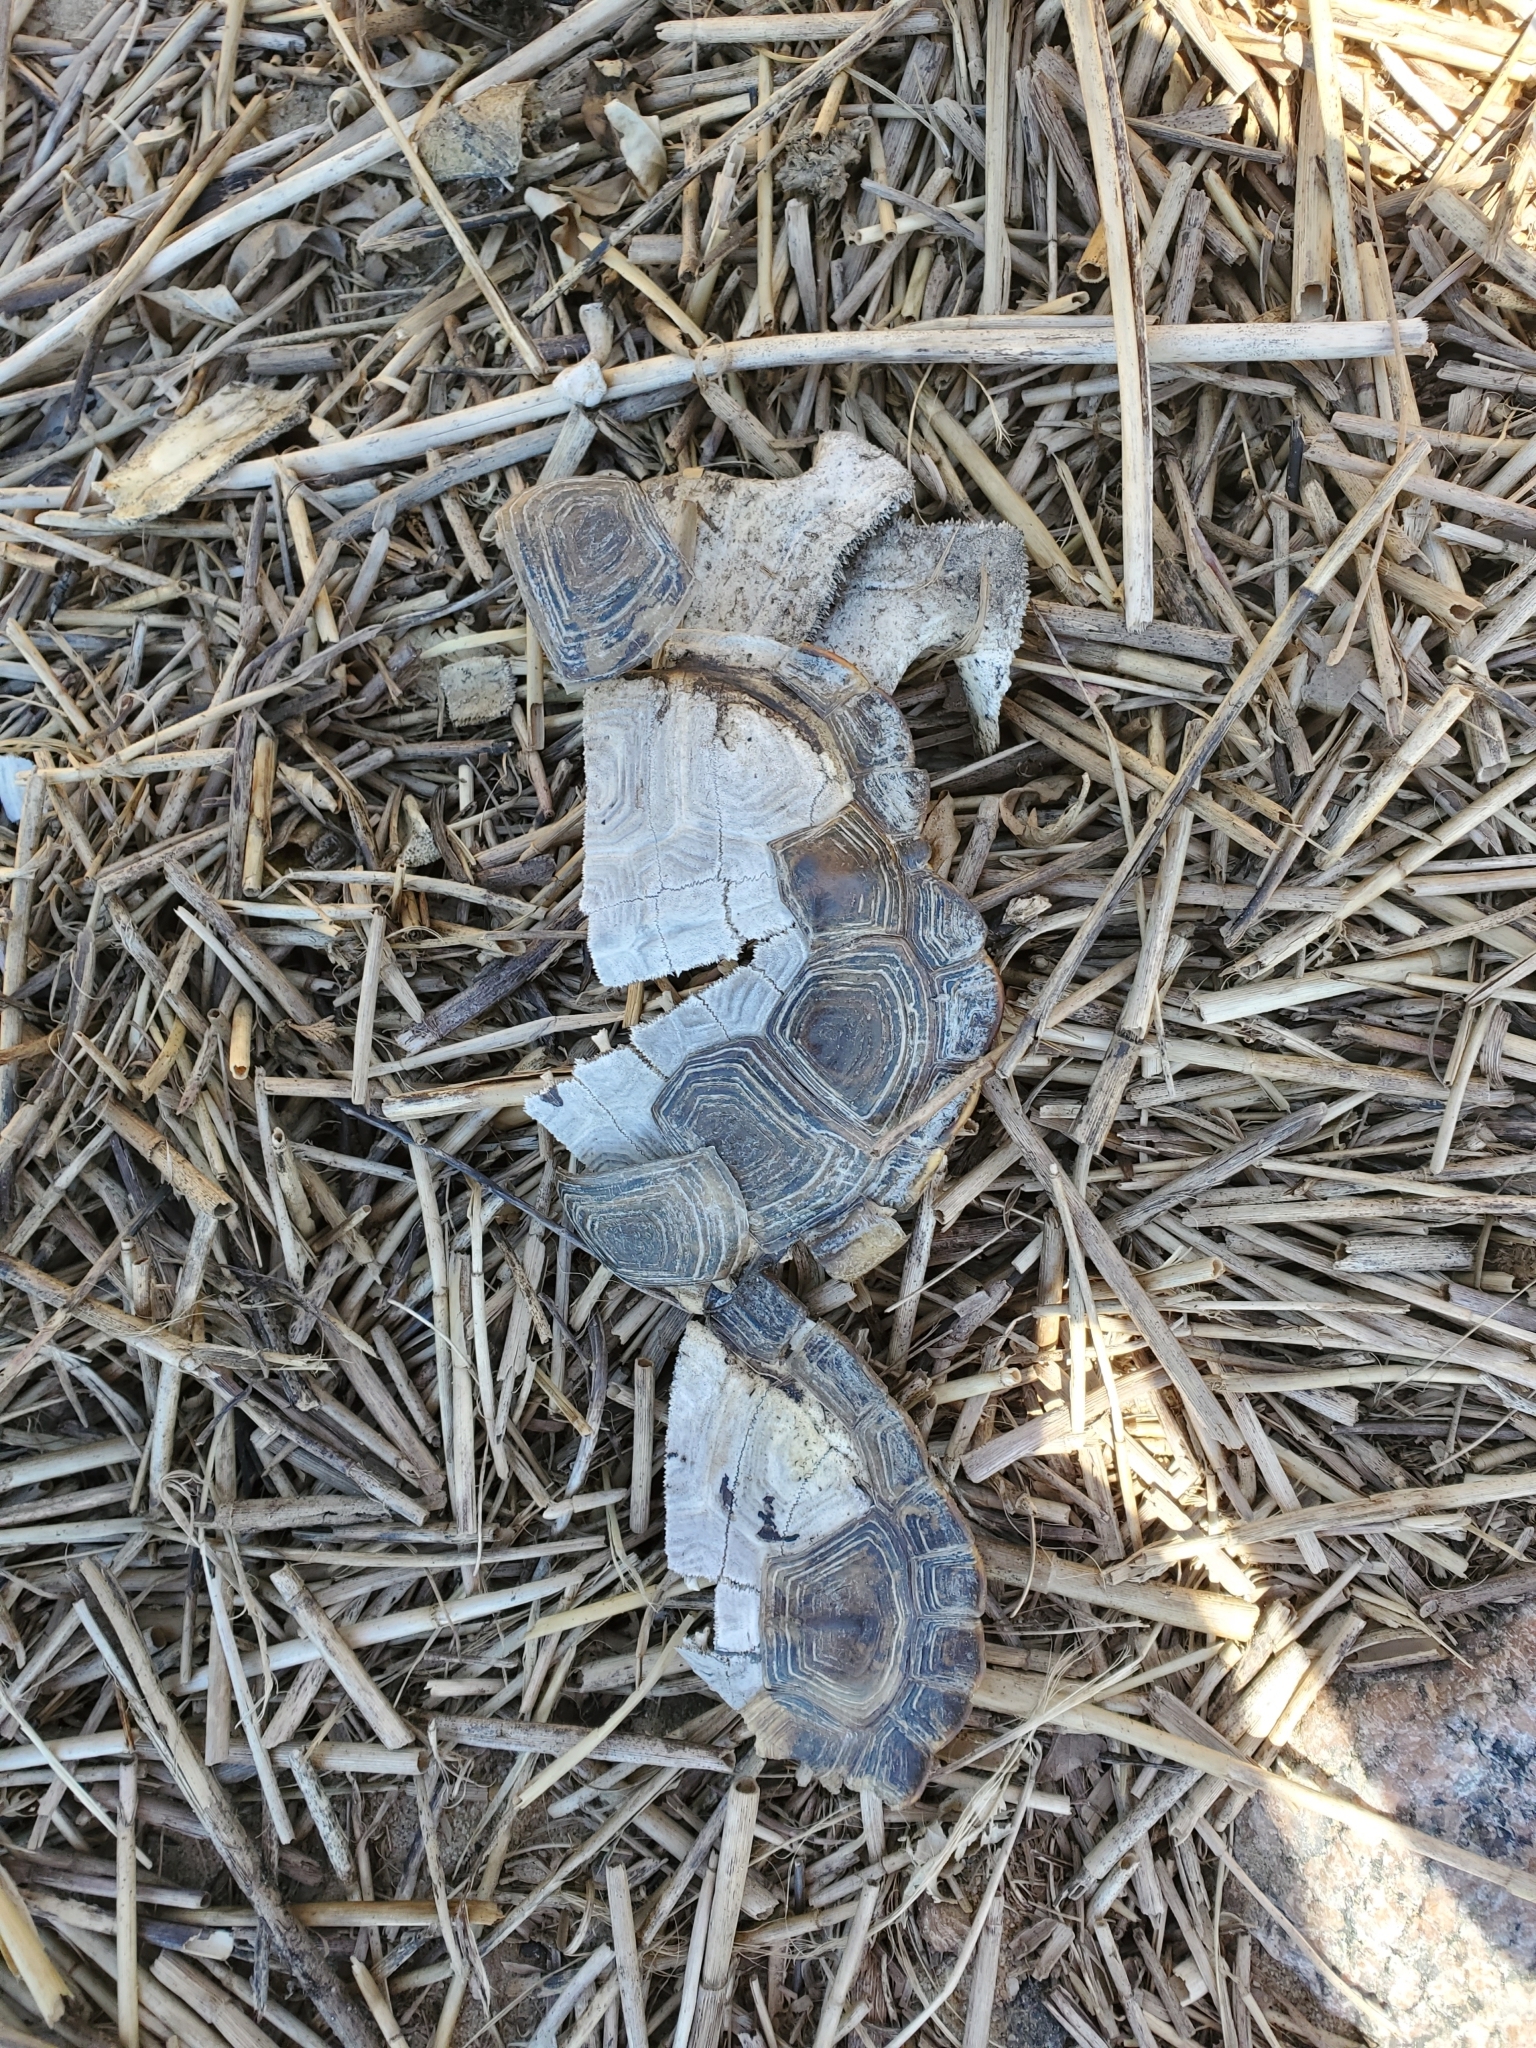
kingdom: Animalia
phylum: Chordata
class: Testudines
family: Emydidae
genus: Malaclemys
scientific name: Malaclemys terrapin
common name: Diamondback terrapin
